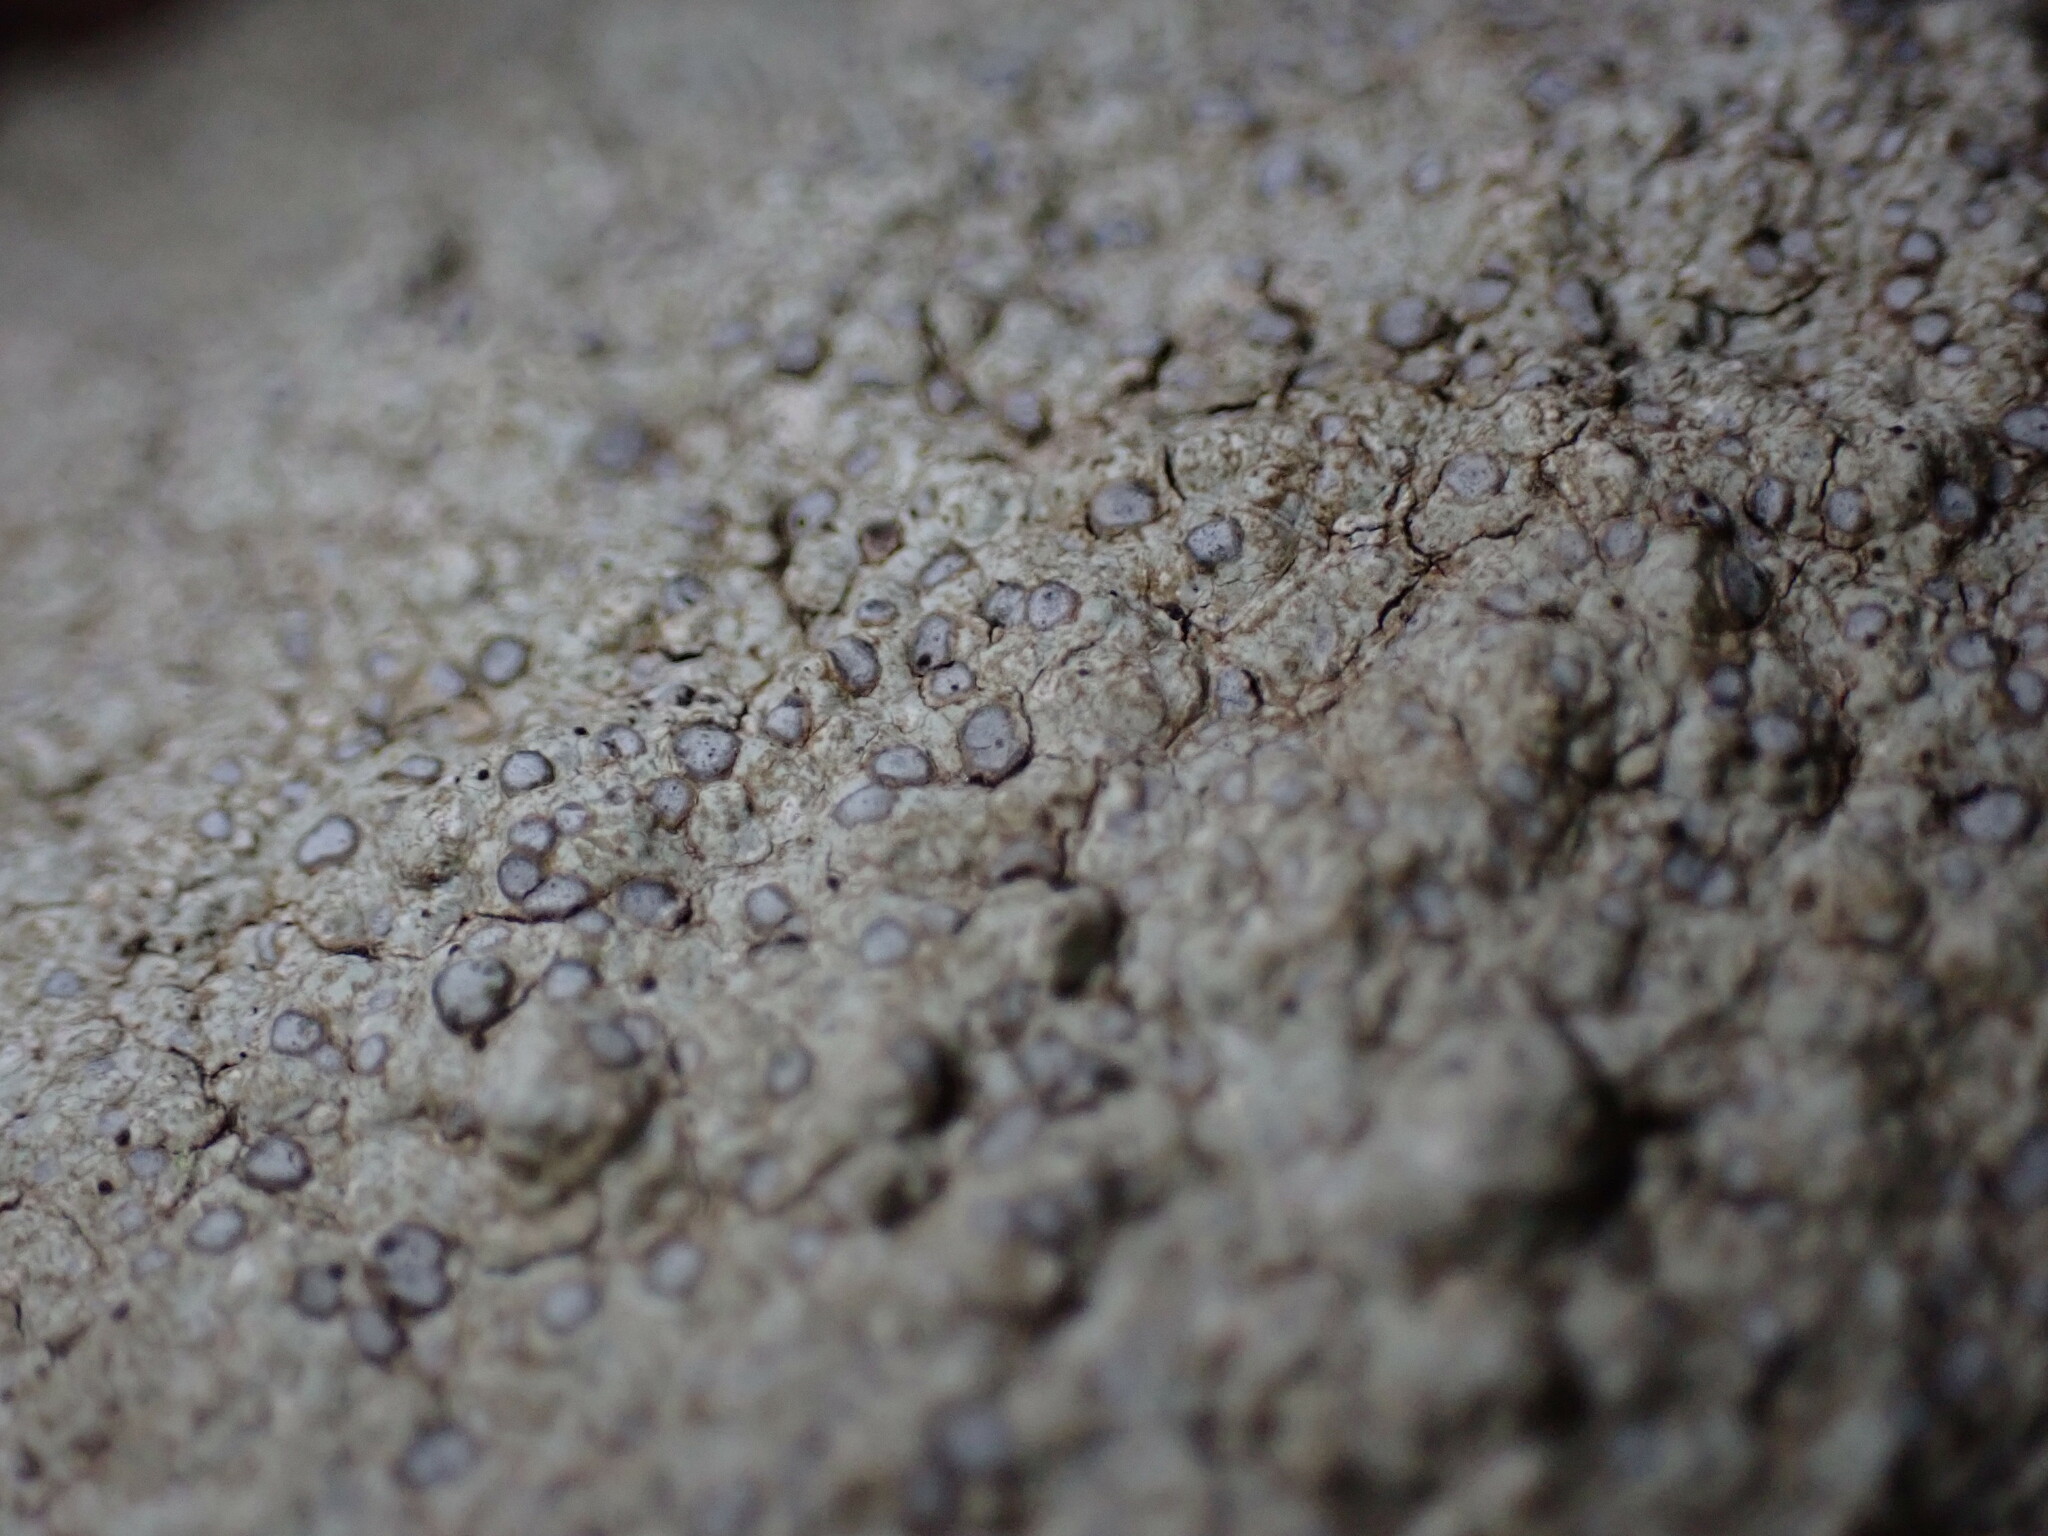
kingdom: Fungi
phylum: Ascomycota
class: Lecanoromycetes
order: Lecideales
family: Lecideaceae
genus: Porpidia
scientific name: Porpidia albocaerulescens
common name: Smokey-eyed boulder lichen
